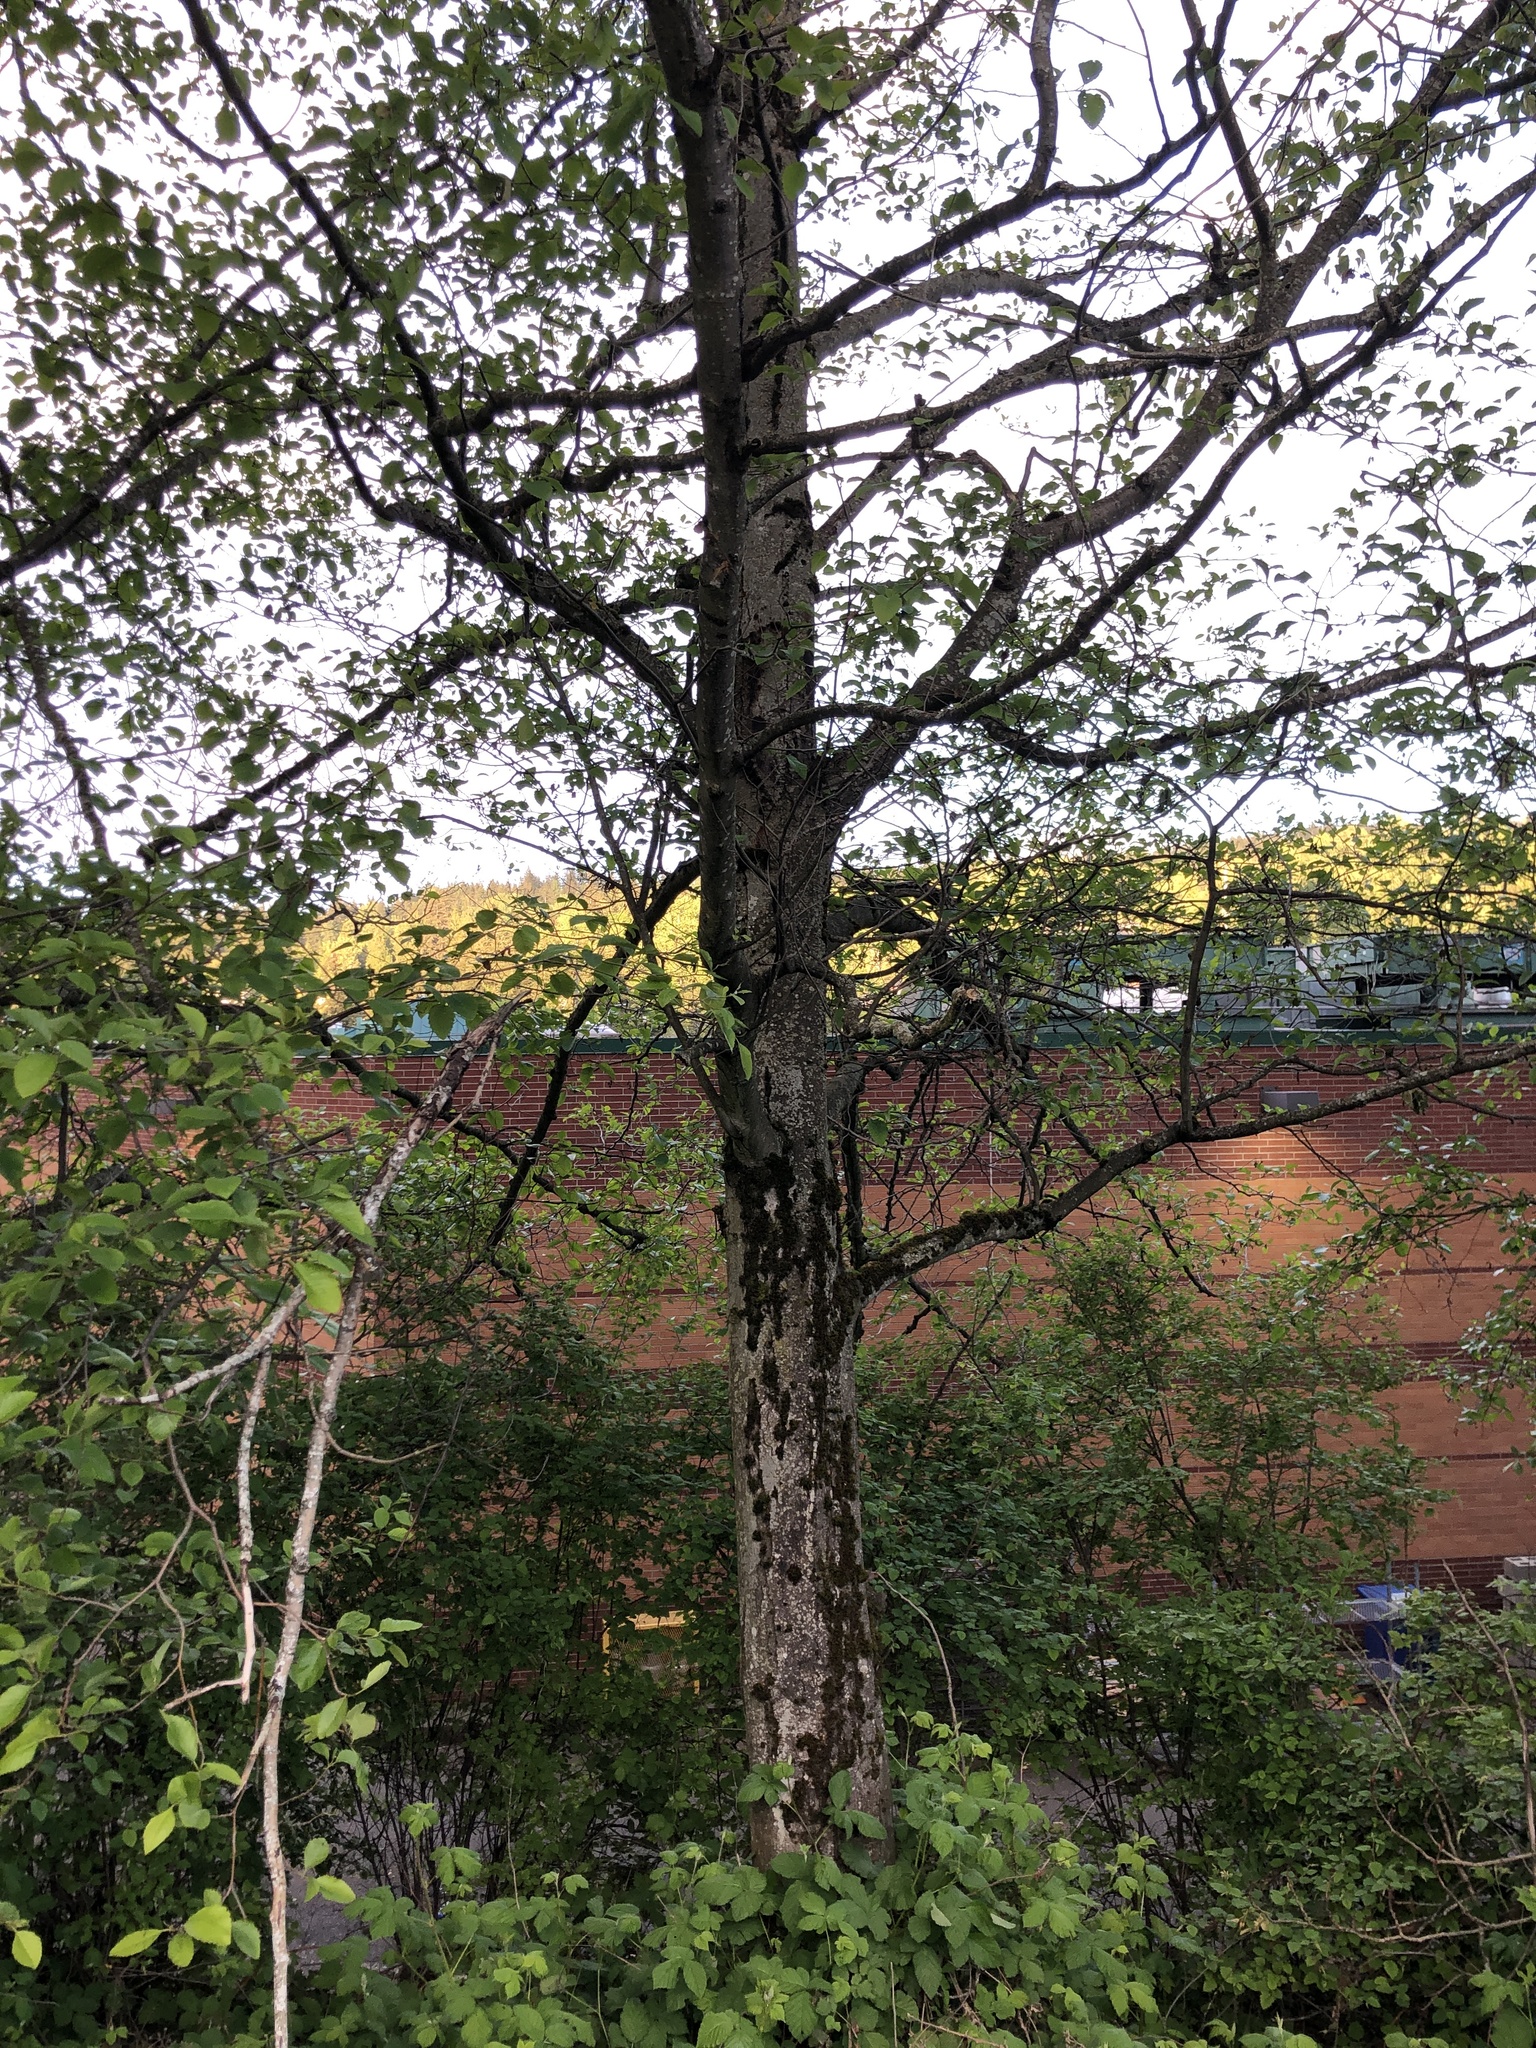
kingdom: Plantae
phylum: Tracheophyta
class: Magnoliopsida
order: Fagales
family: Betulaceae
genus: Alnus
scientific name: Alnus rubra
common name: Red alder
